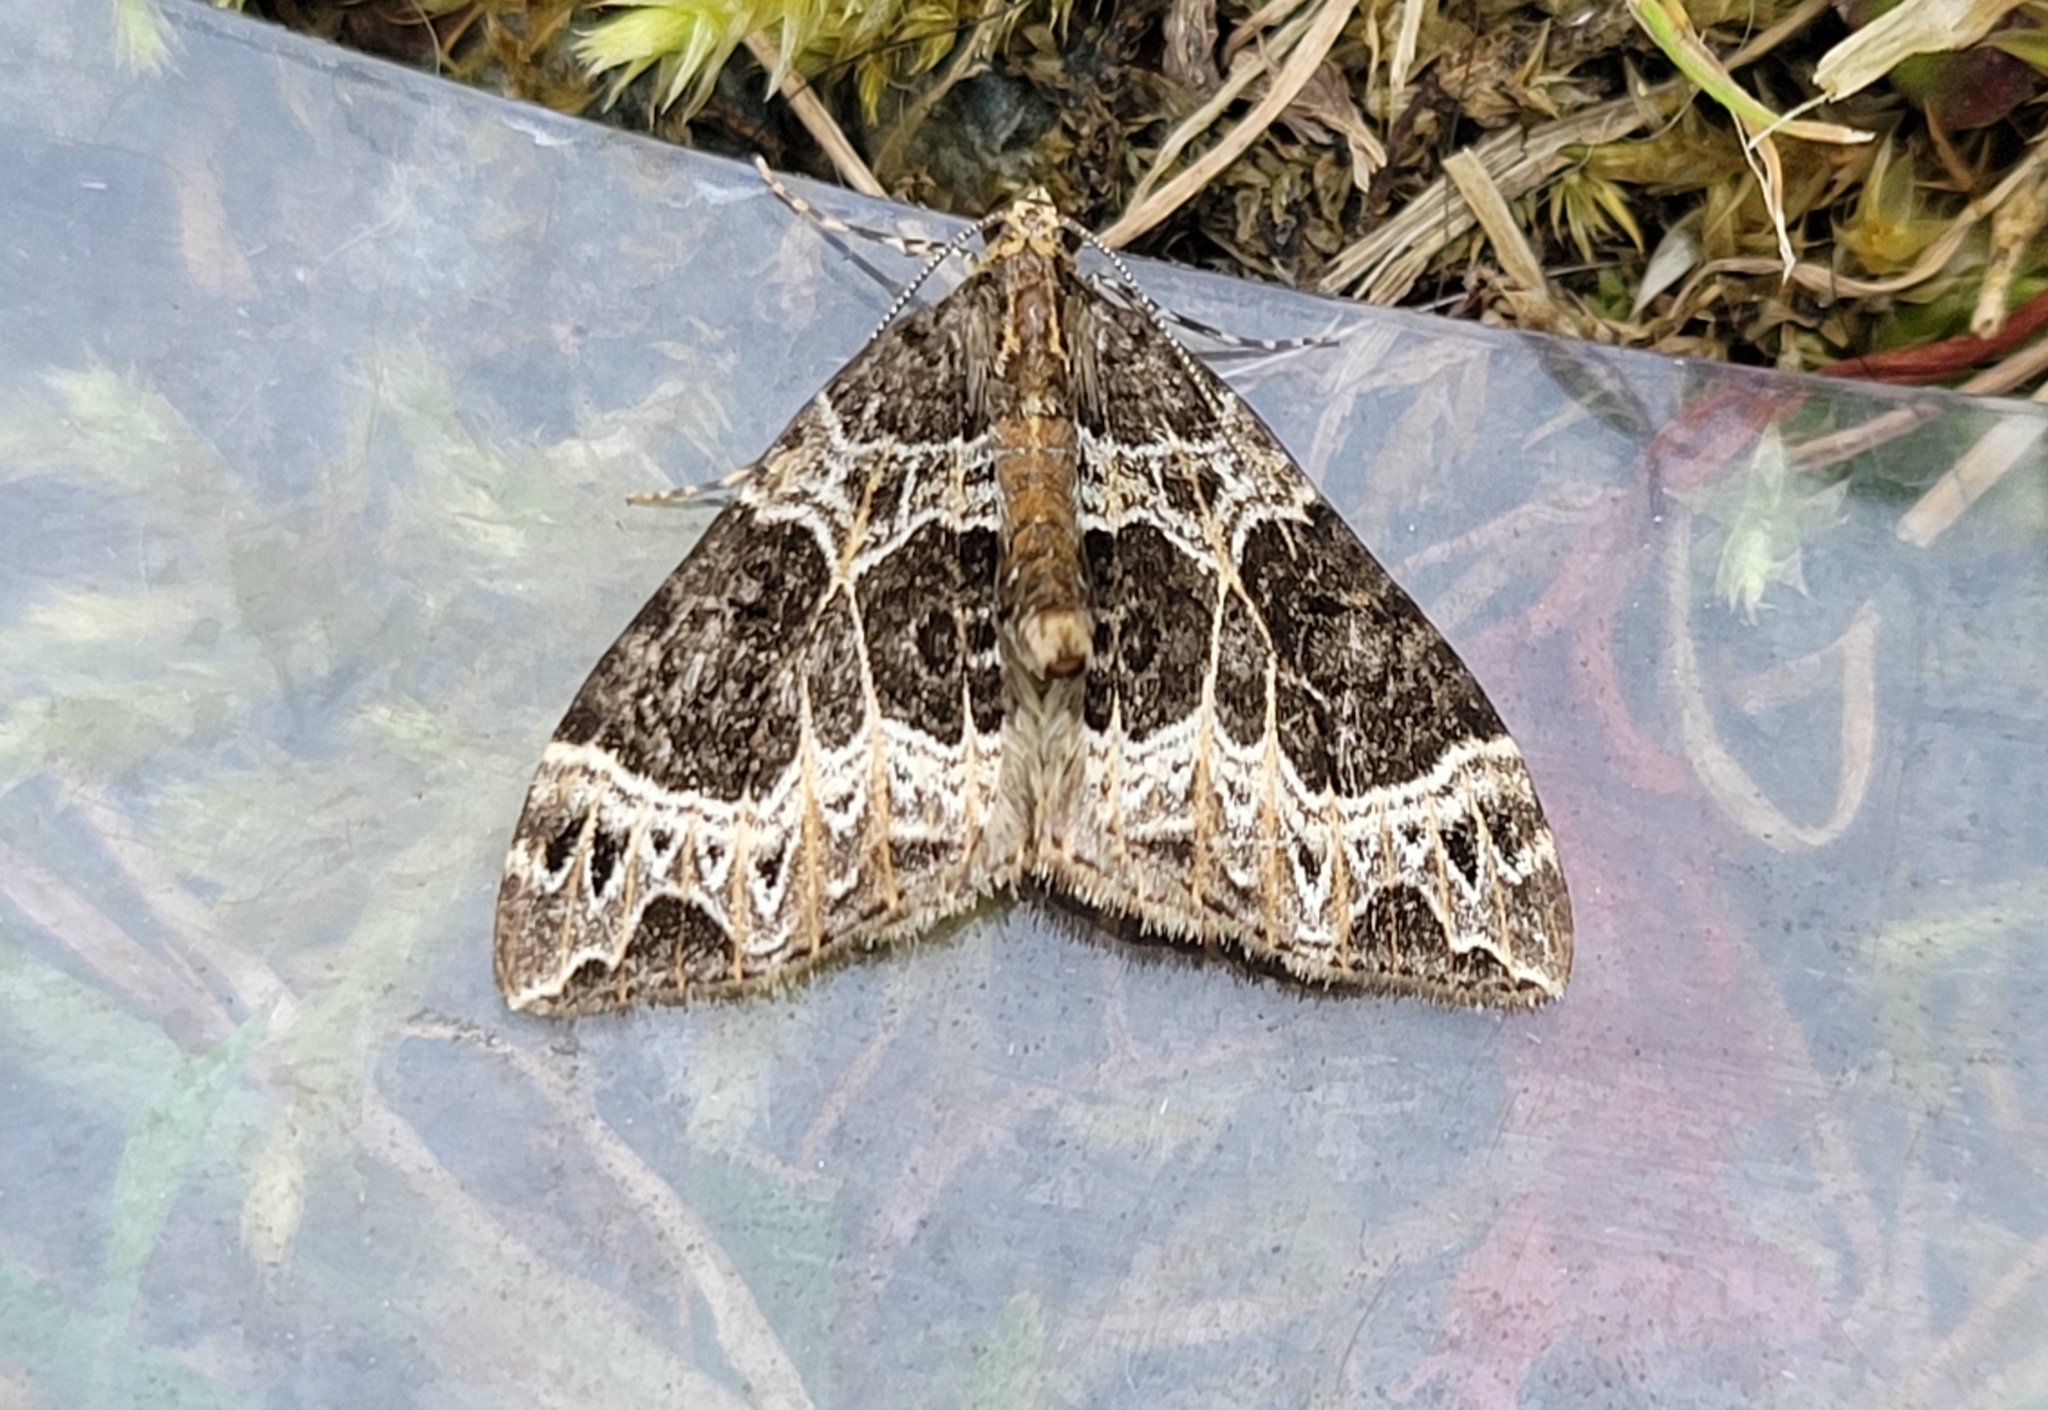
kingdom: Animalia
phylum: Arthropoda
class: Insecta
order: Lepidoptera
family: Geometridae
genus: Ecliptopera
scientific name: Ecliptopera silaceata
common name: Small phoenix
